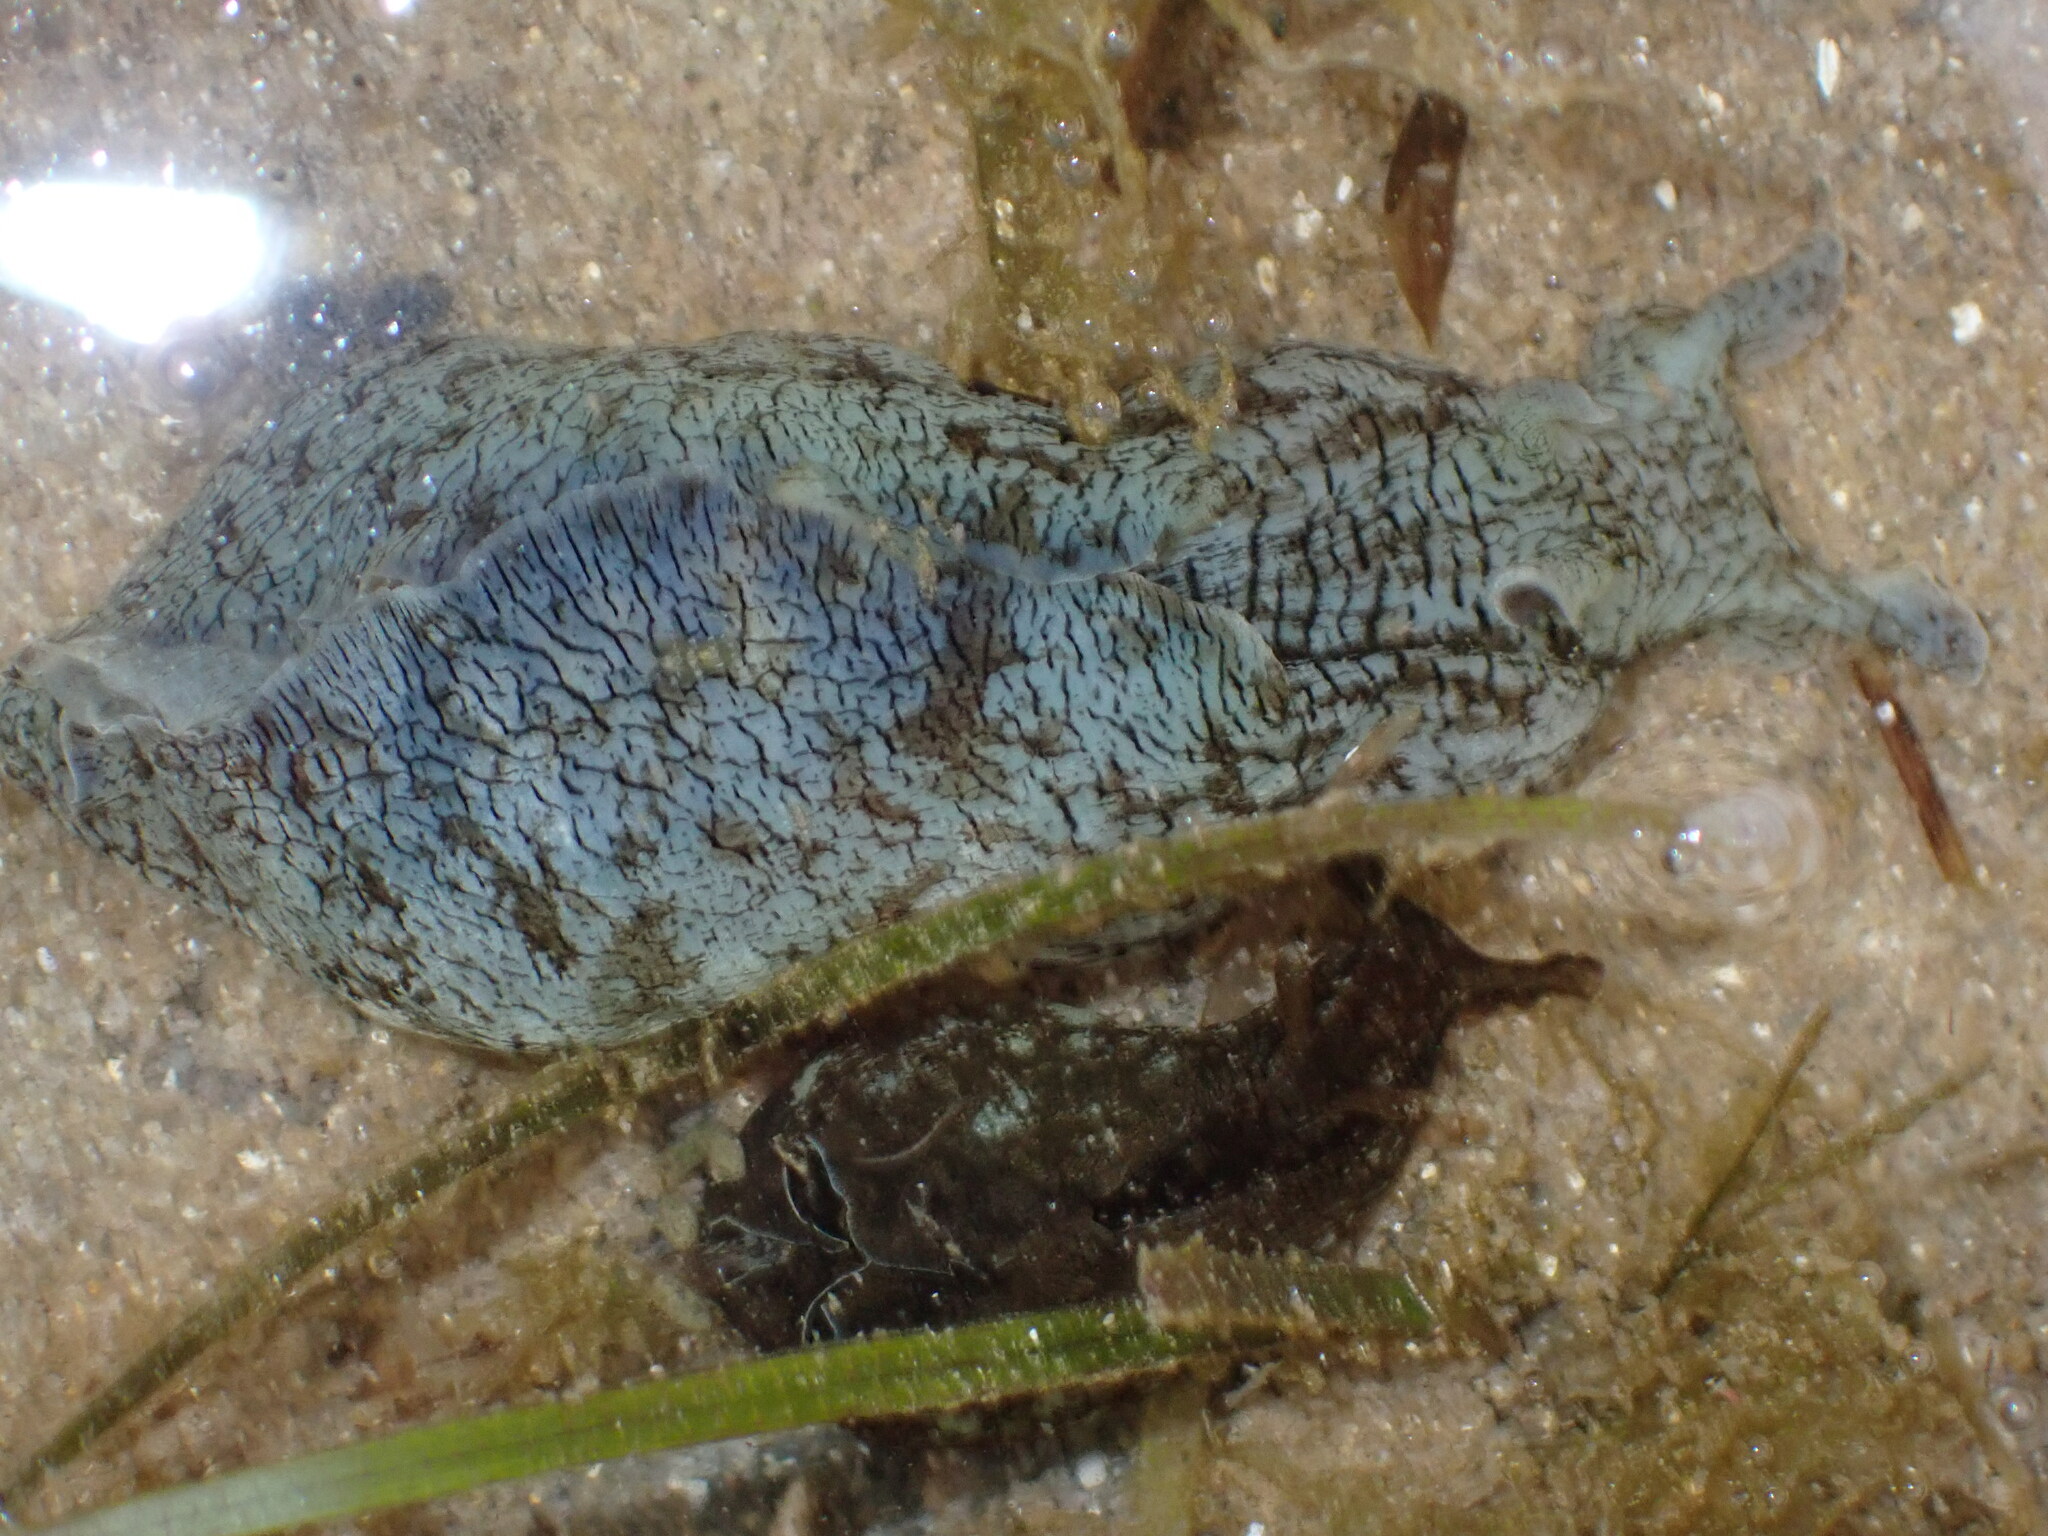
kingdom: Animalia
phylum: Mollusca
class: Gastropoda
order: Aplysiida
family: Aplysiidae
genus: Aplysia
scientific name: Aplysia sydneyensis
